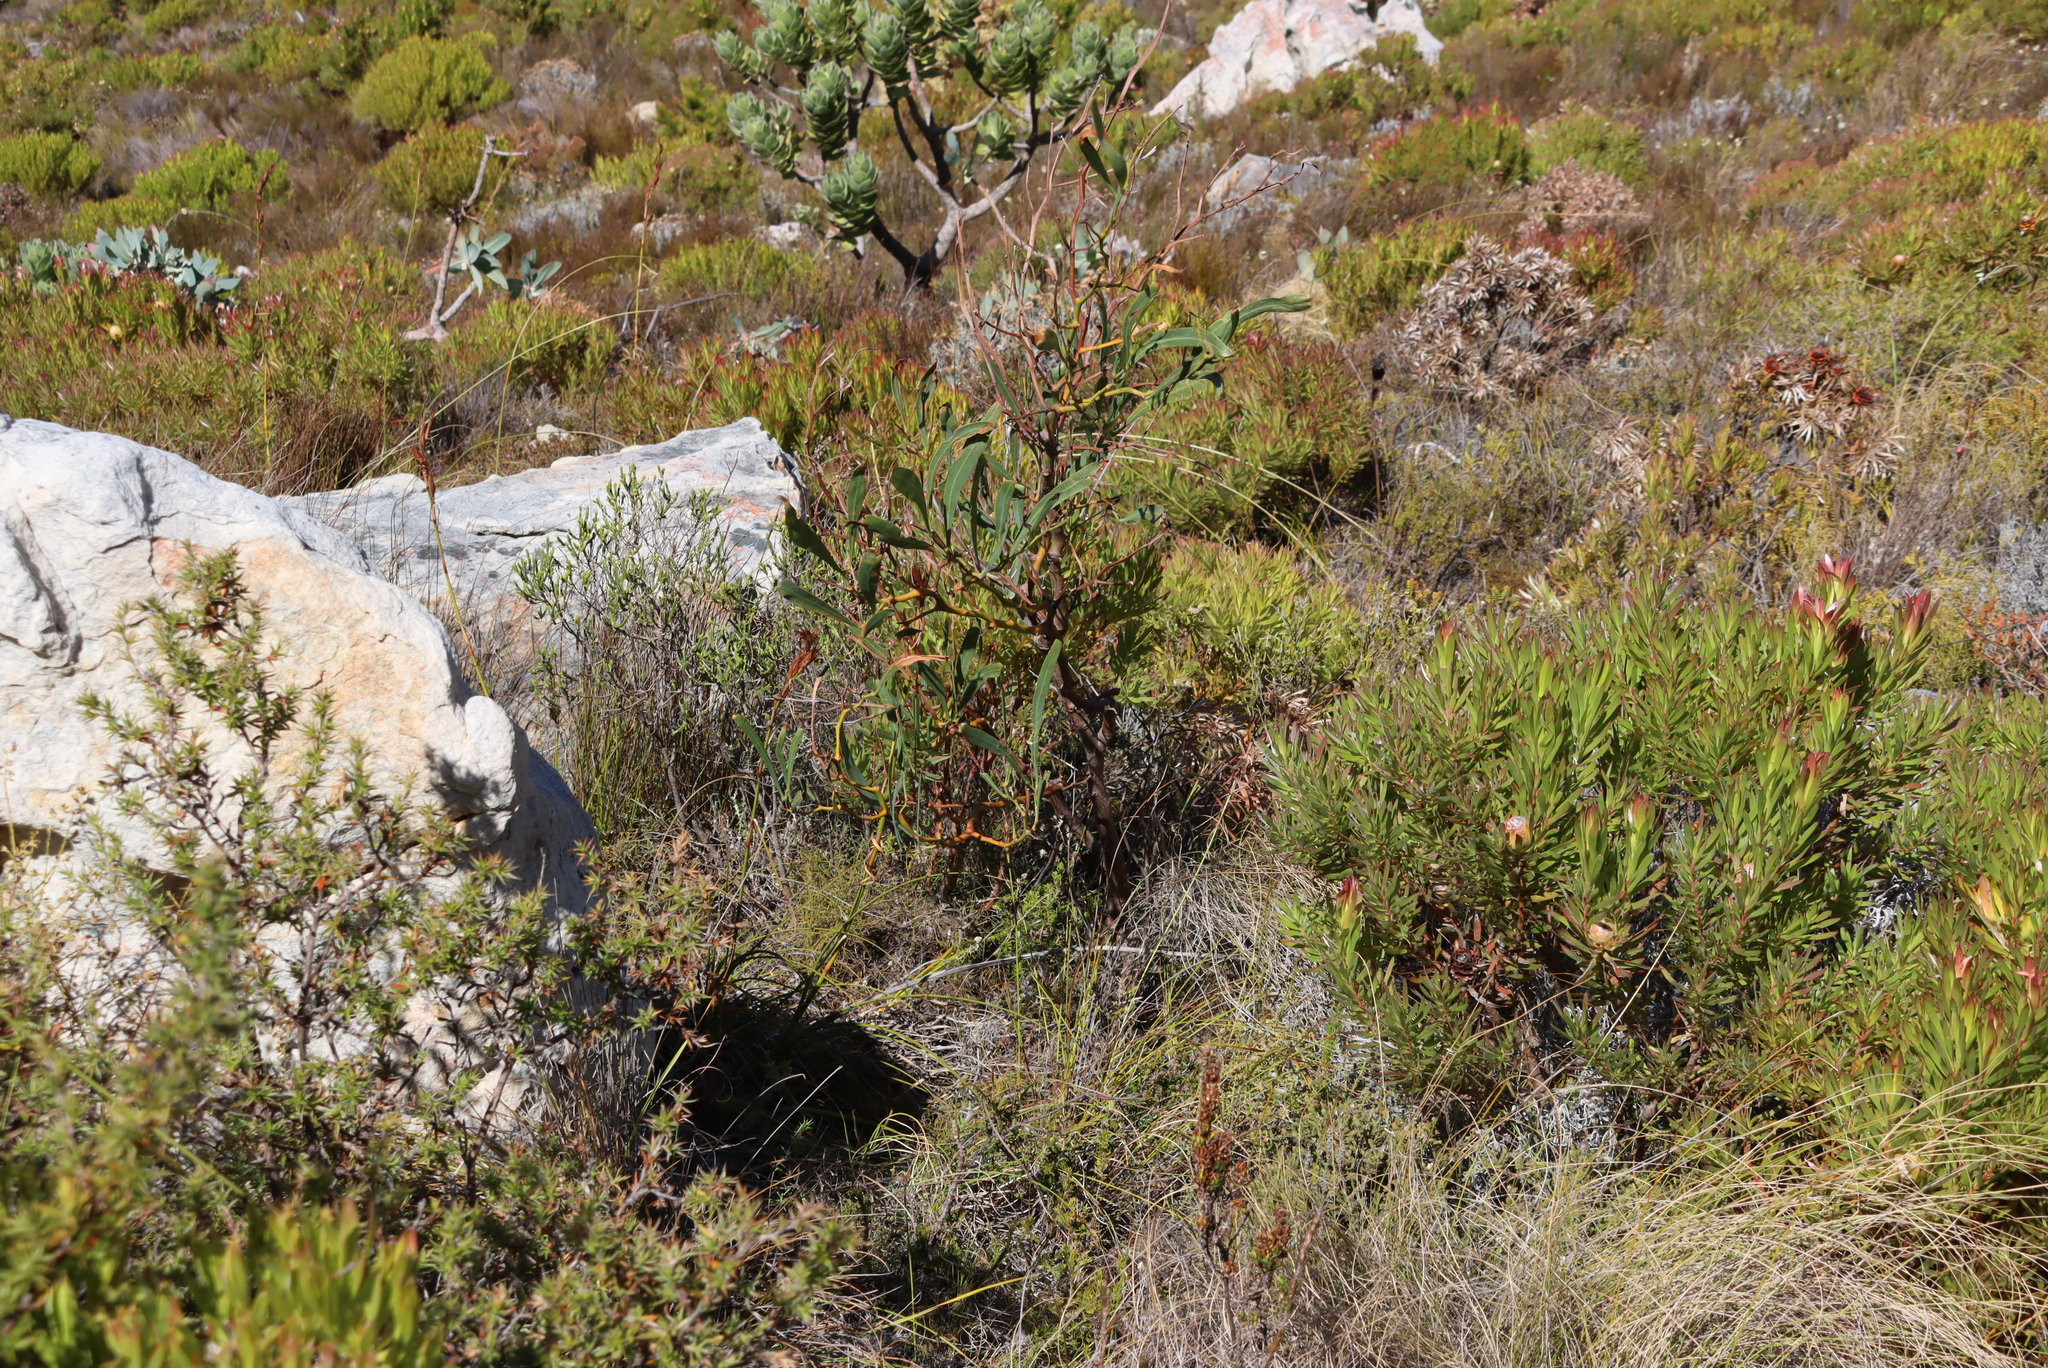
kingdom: Plantae
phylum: Tracheophyta
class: Magnoliopsida
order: Proteales
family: Proteaceae
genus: Protea
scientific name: Protea repens
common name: Sugarbush
